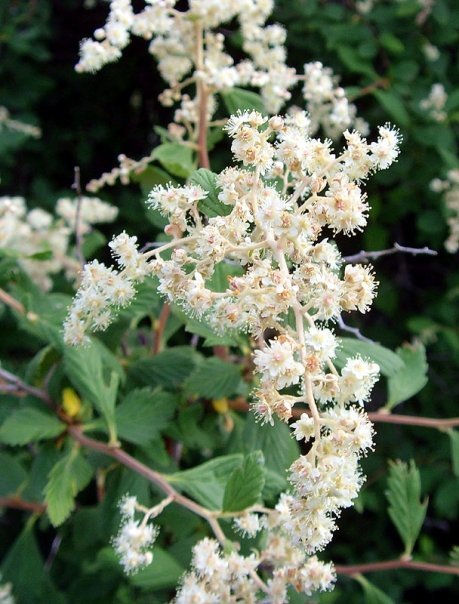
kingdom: Plantae
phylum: Tracheophyta
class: Magnoliopsida
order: Rosales
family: Rosaceae
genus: Holodiscus
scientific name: Holodiscus discolor
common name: Oceanspray
